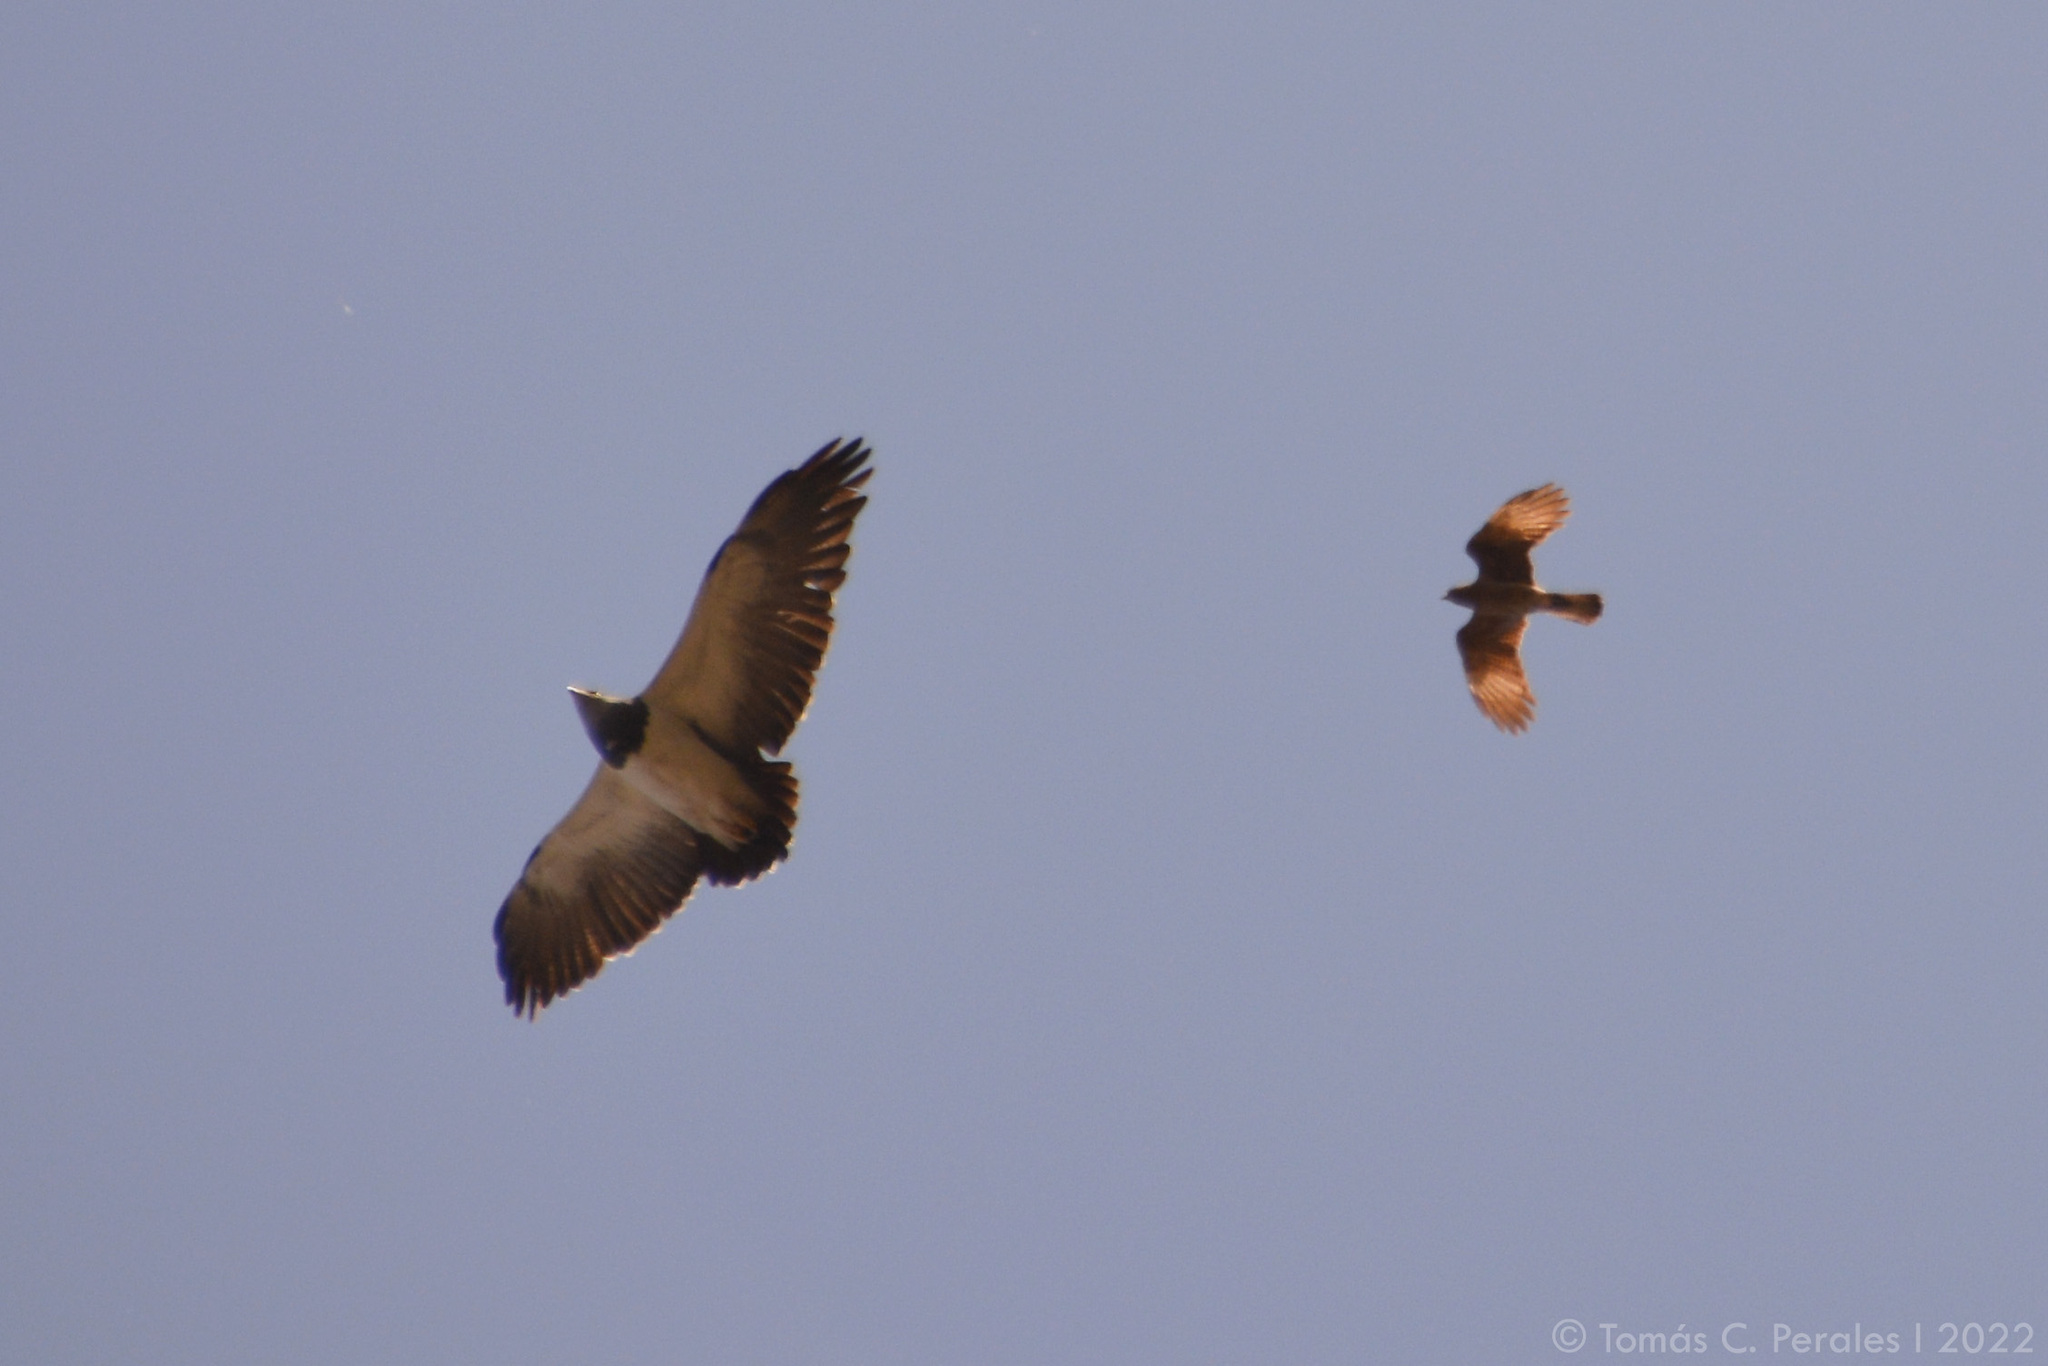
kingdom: Animalia
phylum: Chordata
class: Aves
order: Falconiformes
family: Falconidae
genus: Daptrius
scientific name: Daptrius
